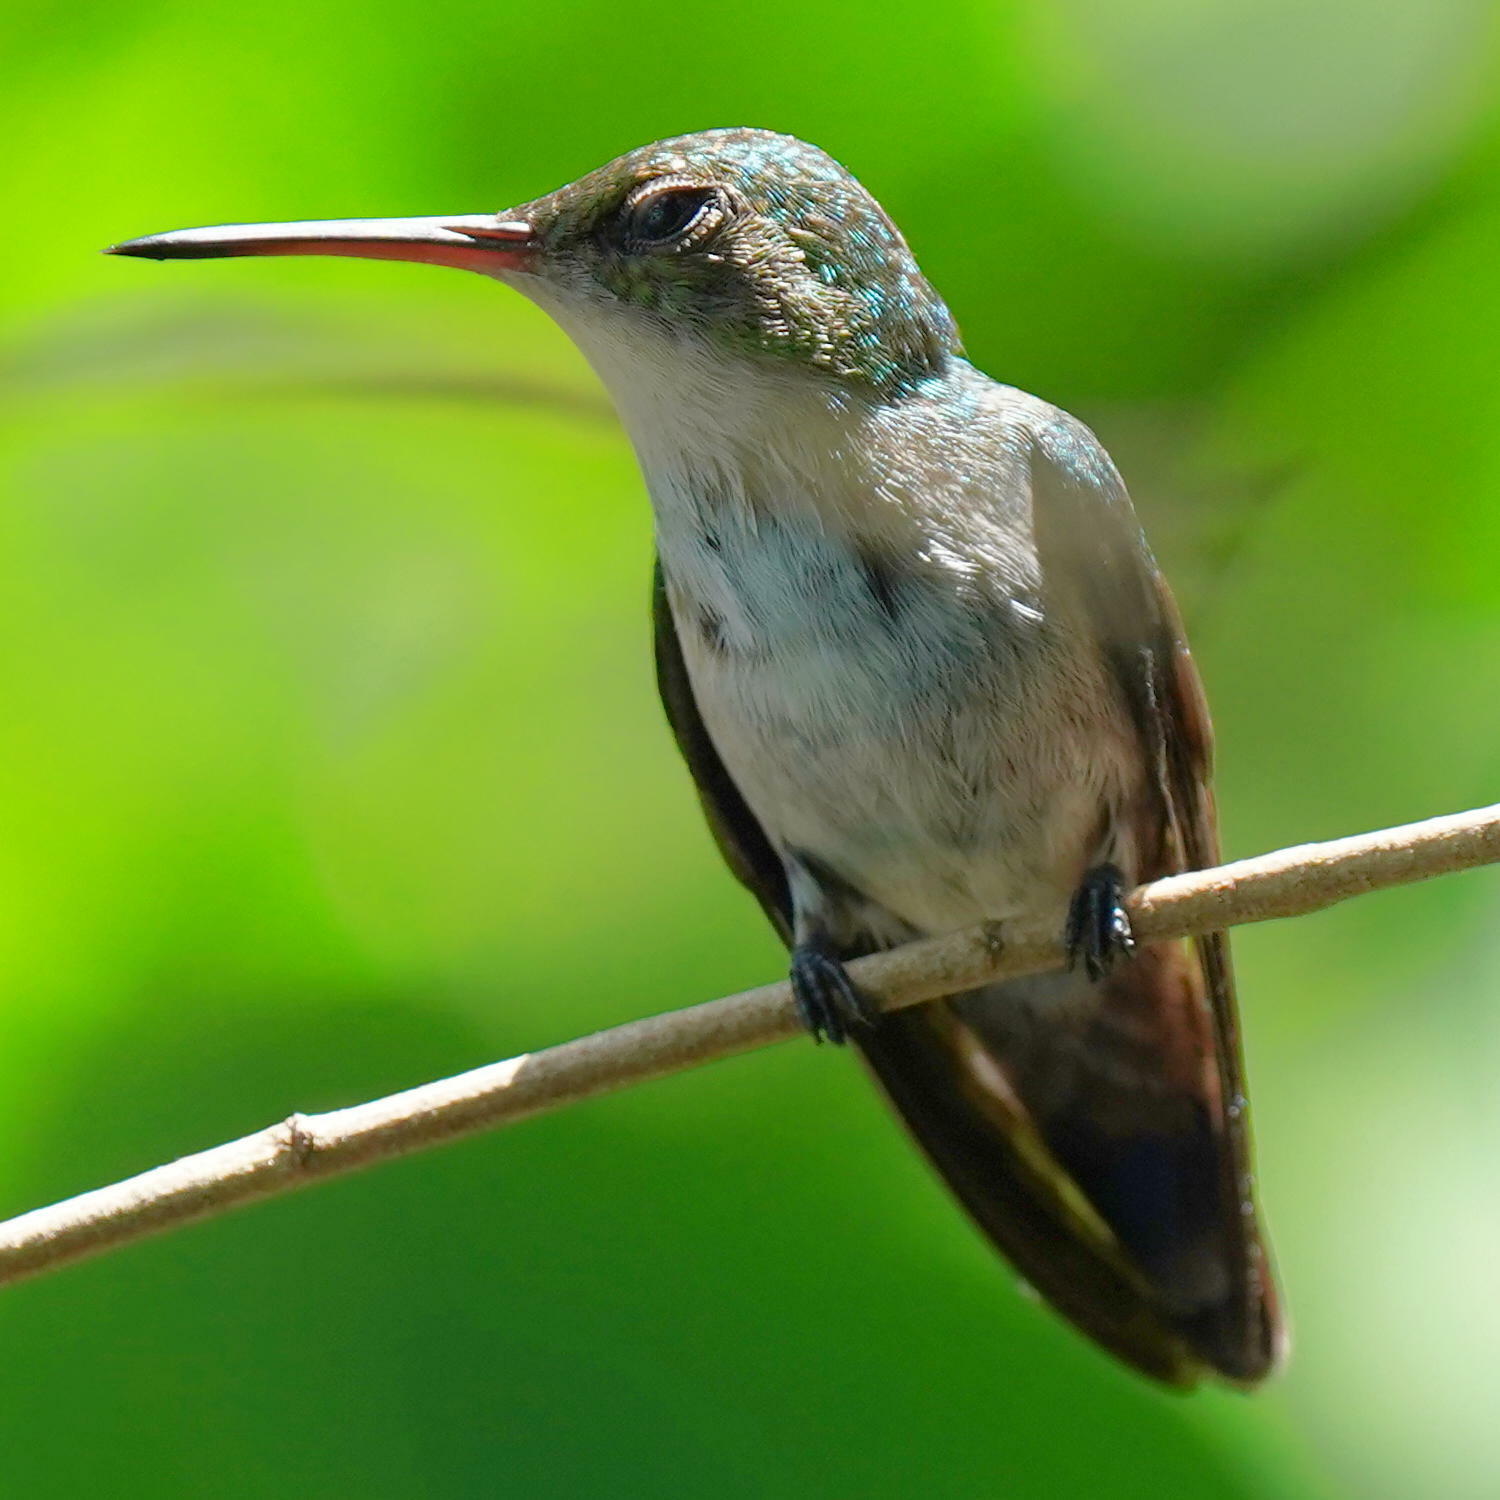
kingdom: Animalia
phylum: Chordata
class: Aves
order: Apodiformes
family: Trochilidae
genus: Chrysuronia
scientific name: Chrysuronia coeruleogularis
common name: Sapphire-throated hummingbird
